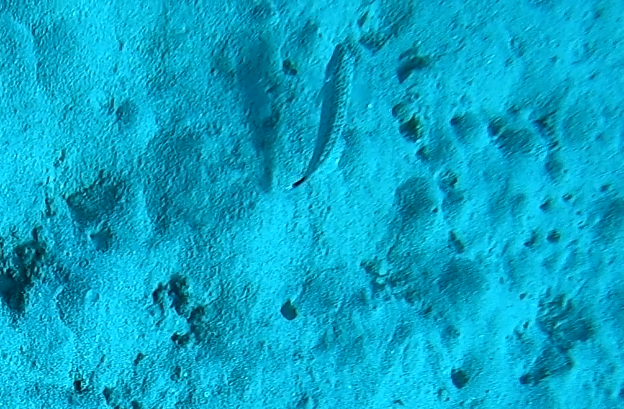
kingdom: Animalia
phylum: Chordata
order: Perciformes
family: Pinguipedidae
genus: Parapercis
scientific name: Parapercis queenslandica
